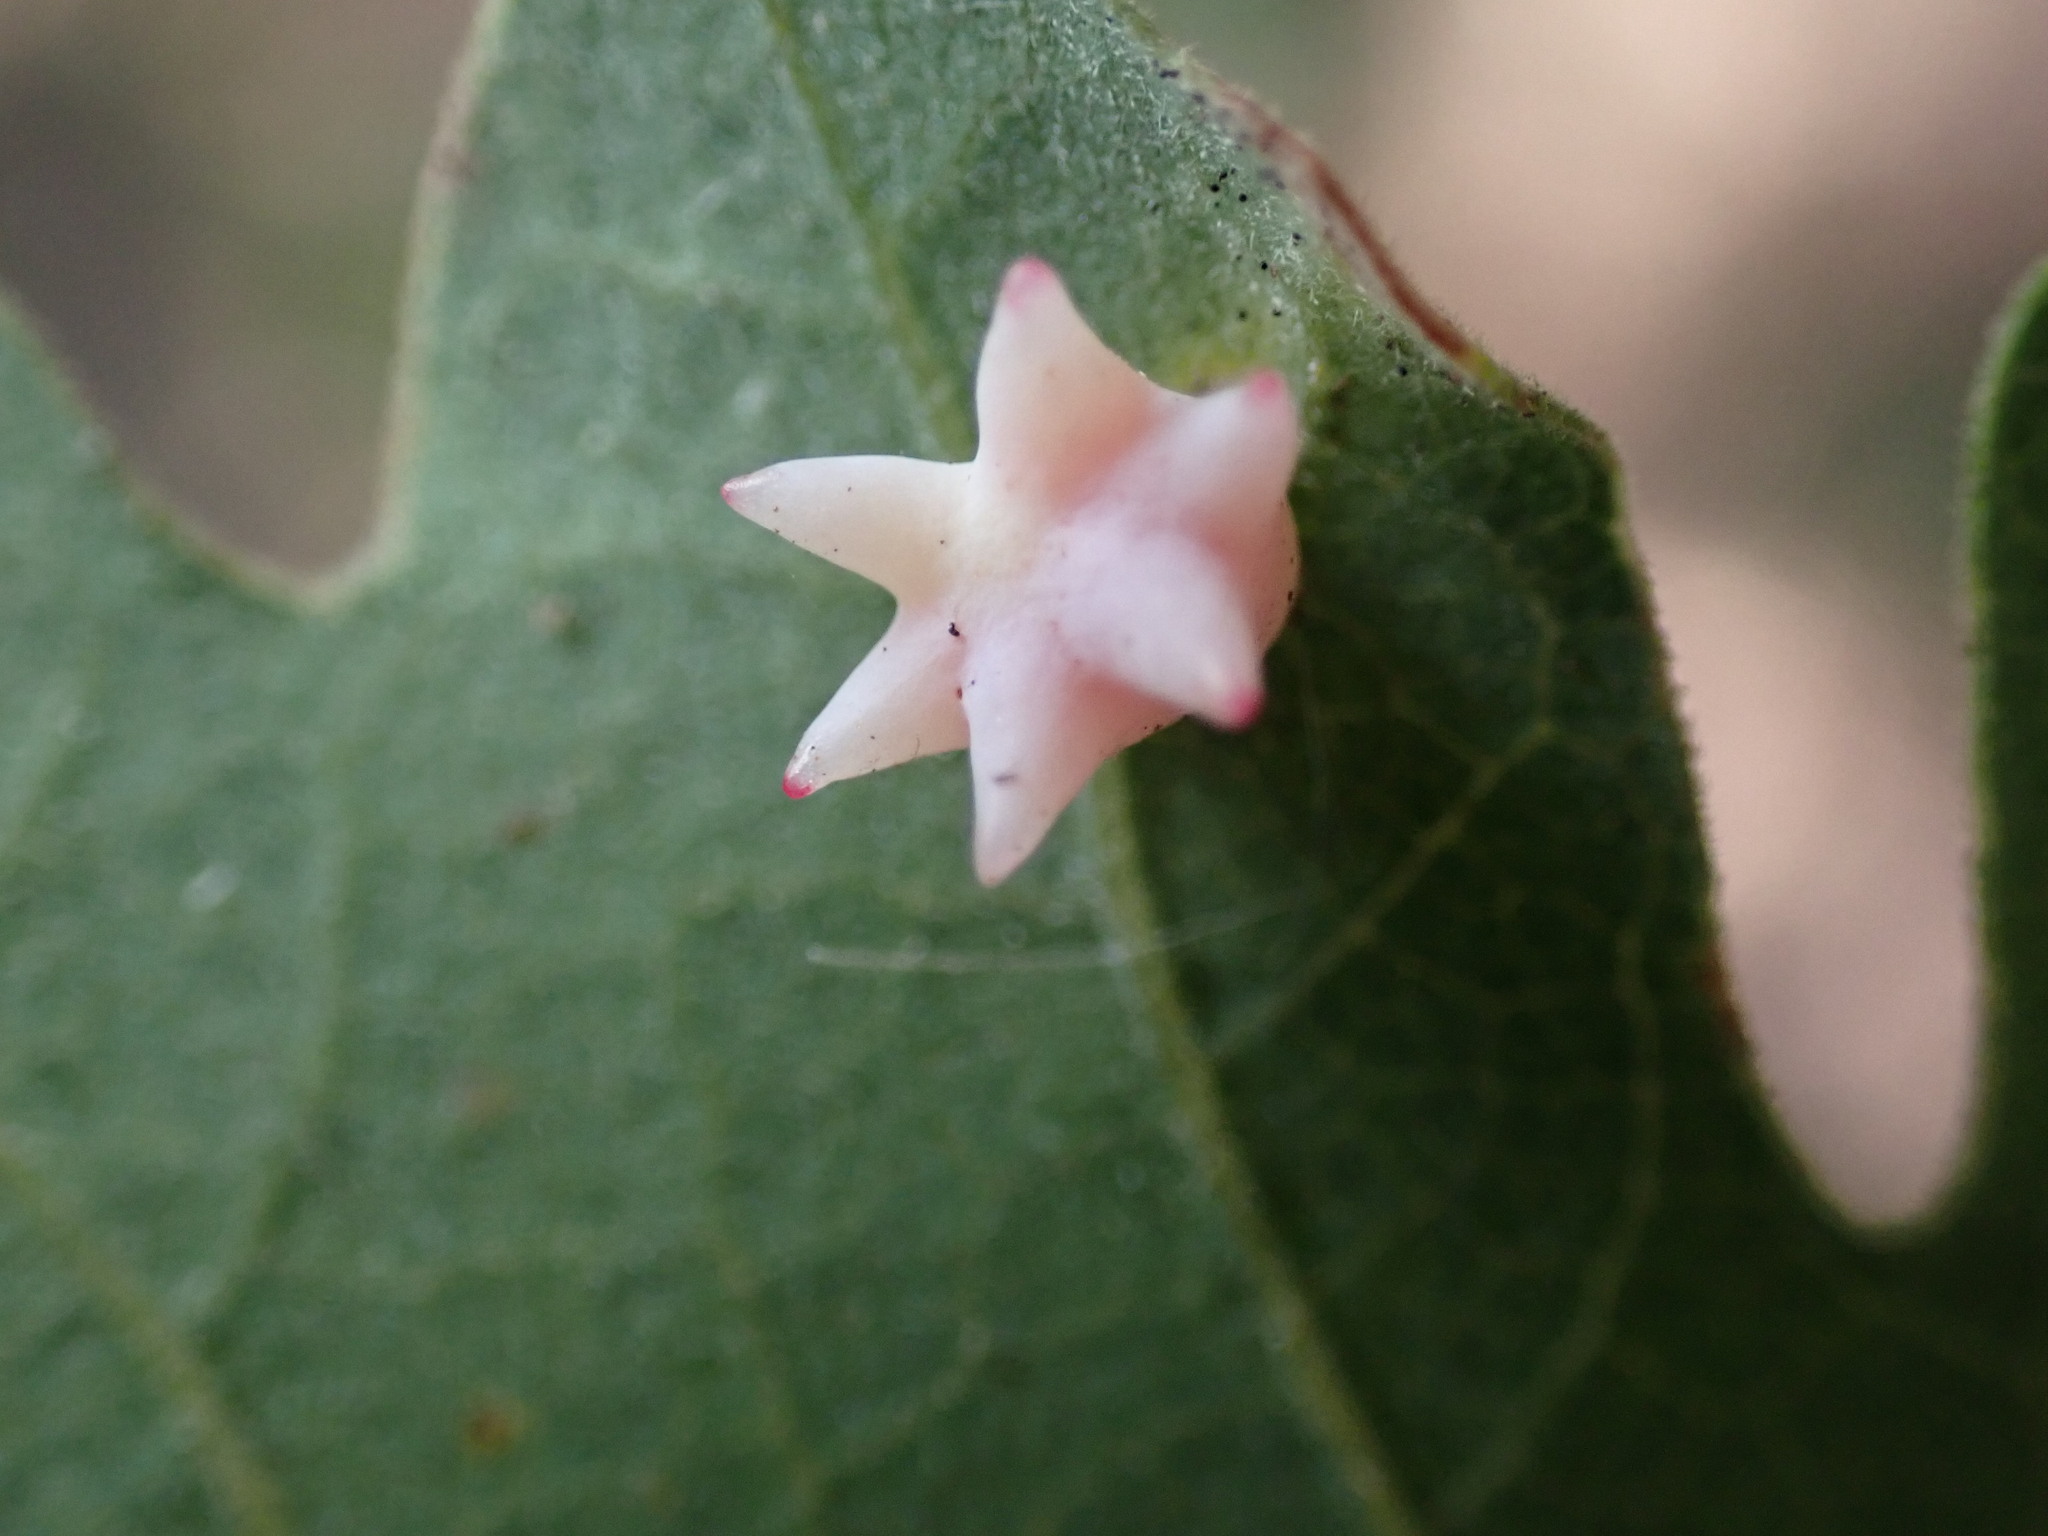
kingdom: Animalia
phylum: Arthropoda
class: Insecta
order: Hymenoptera
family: Cynipidae
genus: Cynips
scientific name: Cynips douglasi
